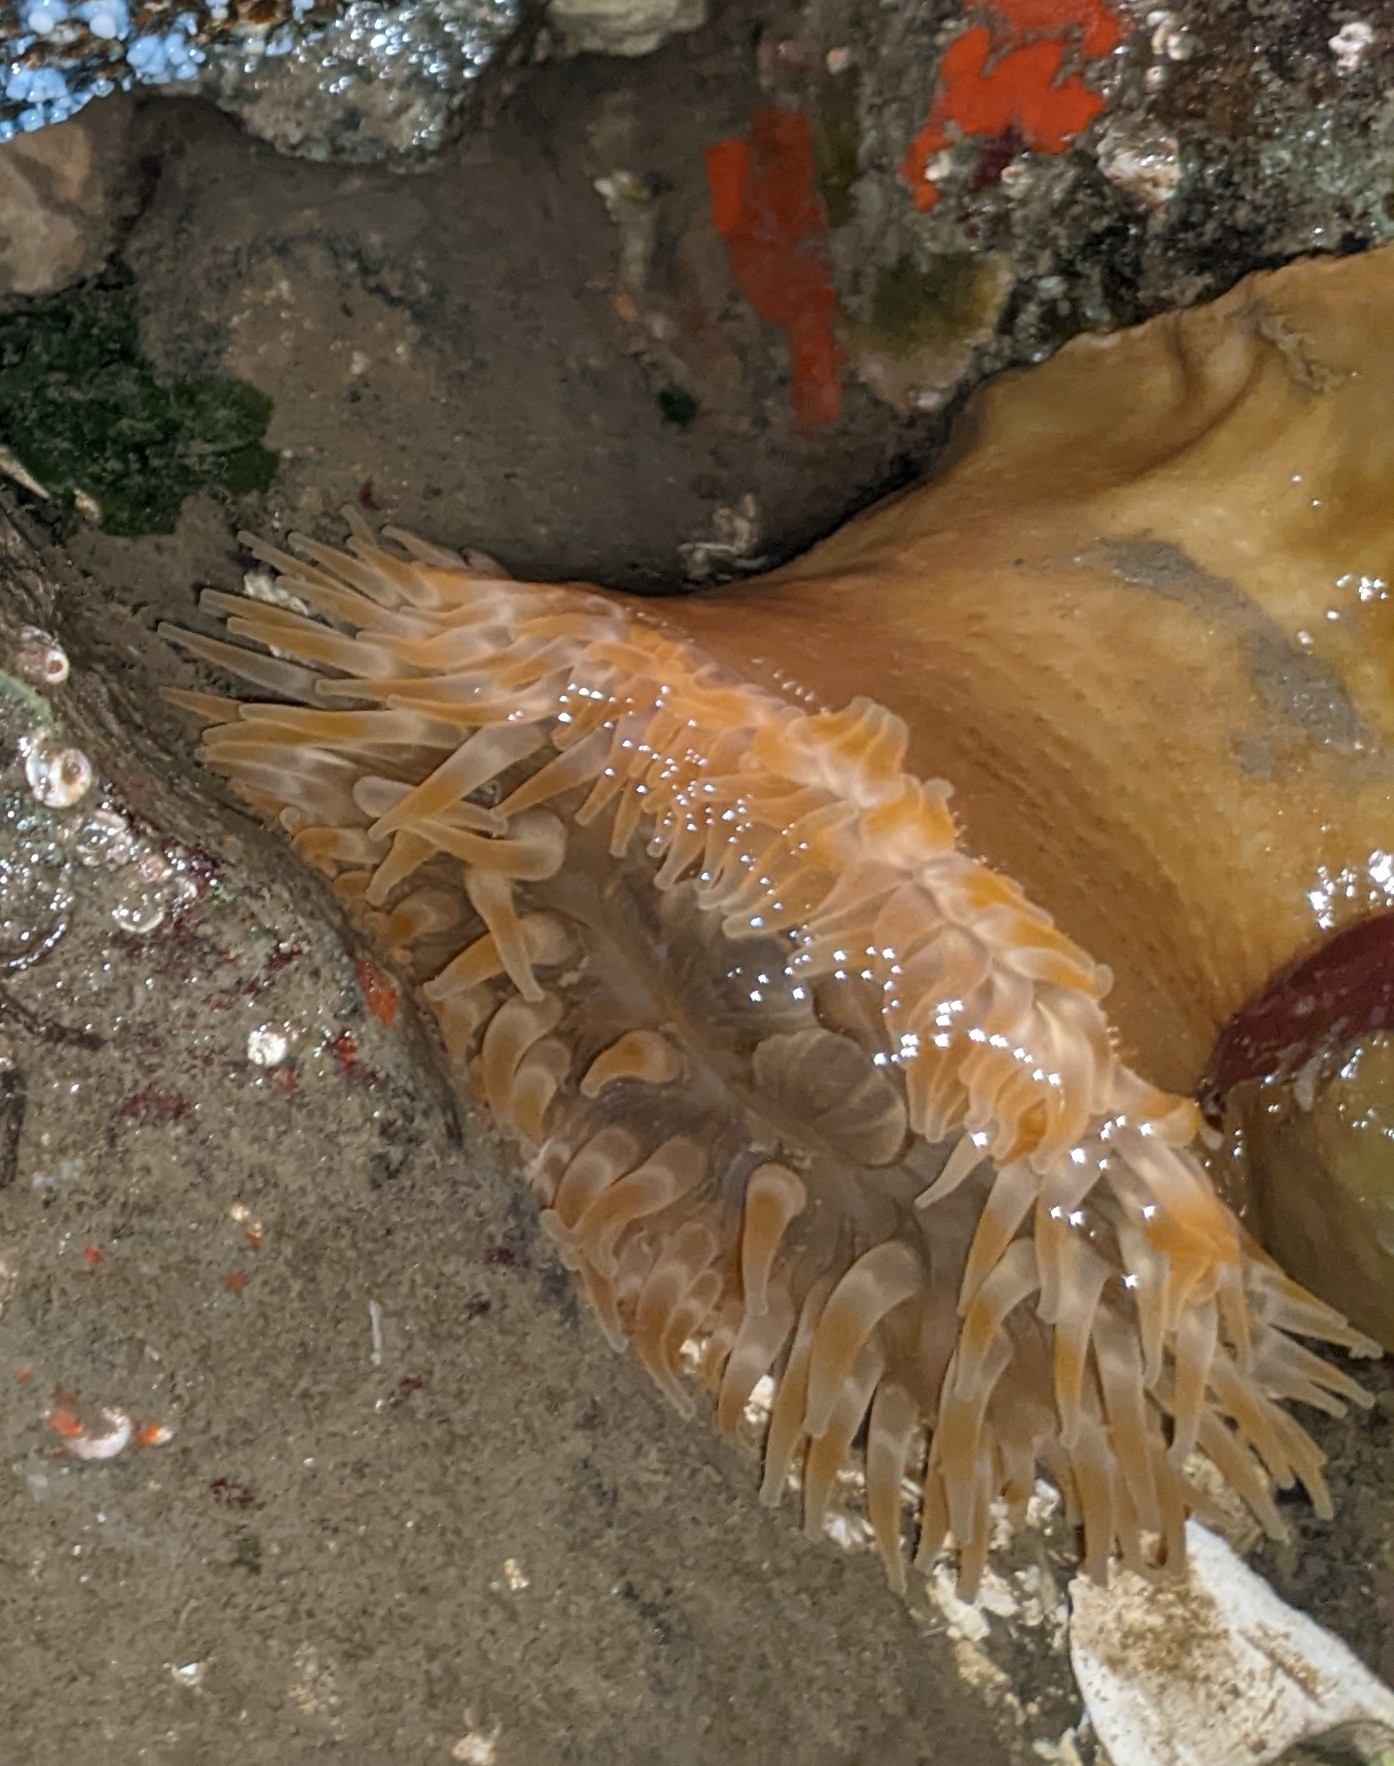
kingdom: Animalia
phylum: Cnidaria
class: Anthozoa
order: Actiniaria
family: Actiniidae
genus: Urticina
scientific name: Urticina grebelnyi
